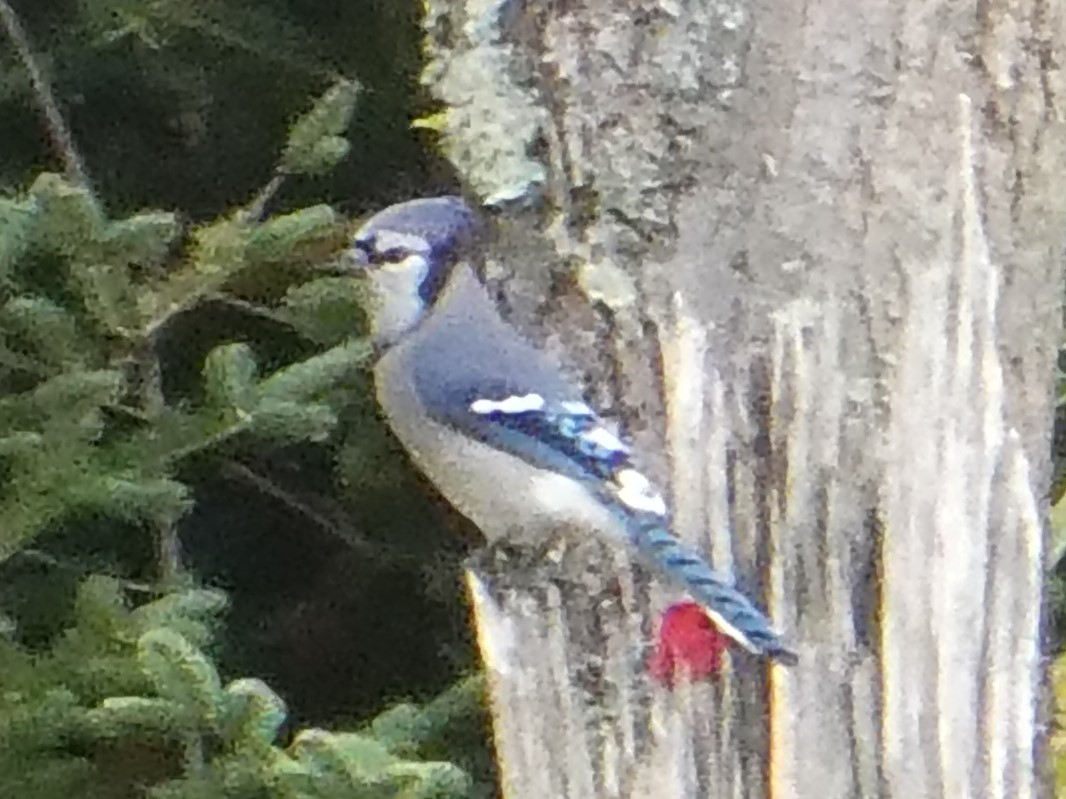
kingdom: Animalia
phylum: Chordata
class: Aves
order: Passeriformes
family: Corvidae
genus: Cyanocitta
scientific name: Cyanocitta cristata
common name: Blue jay
